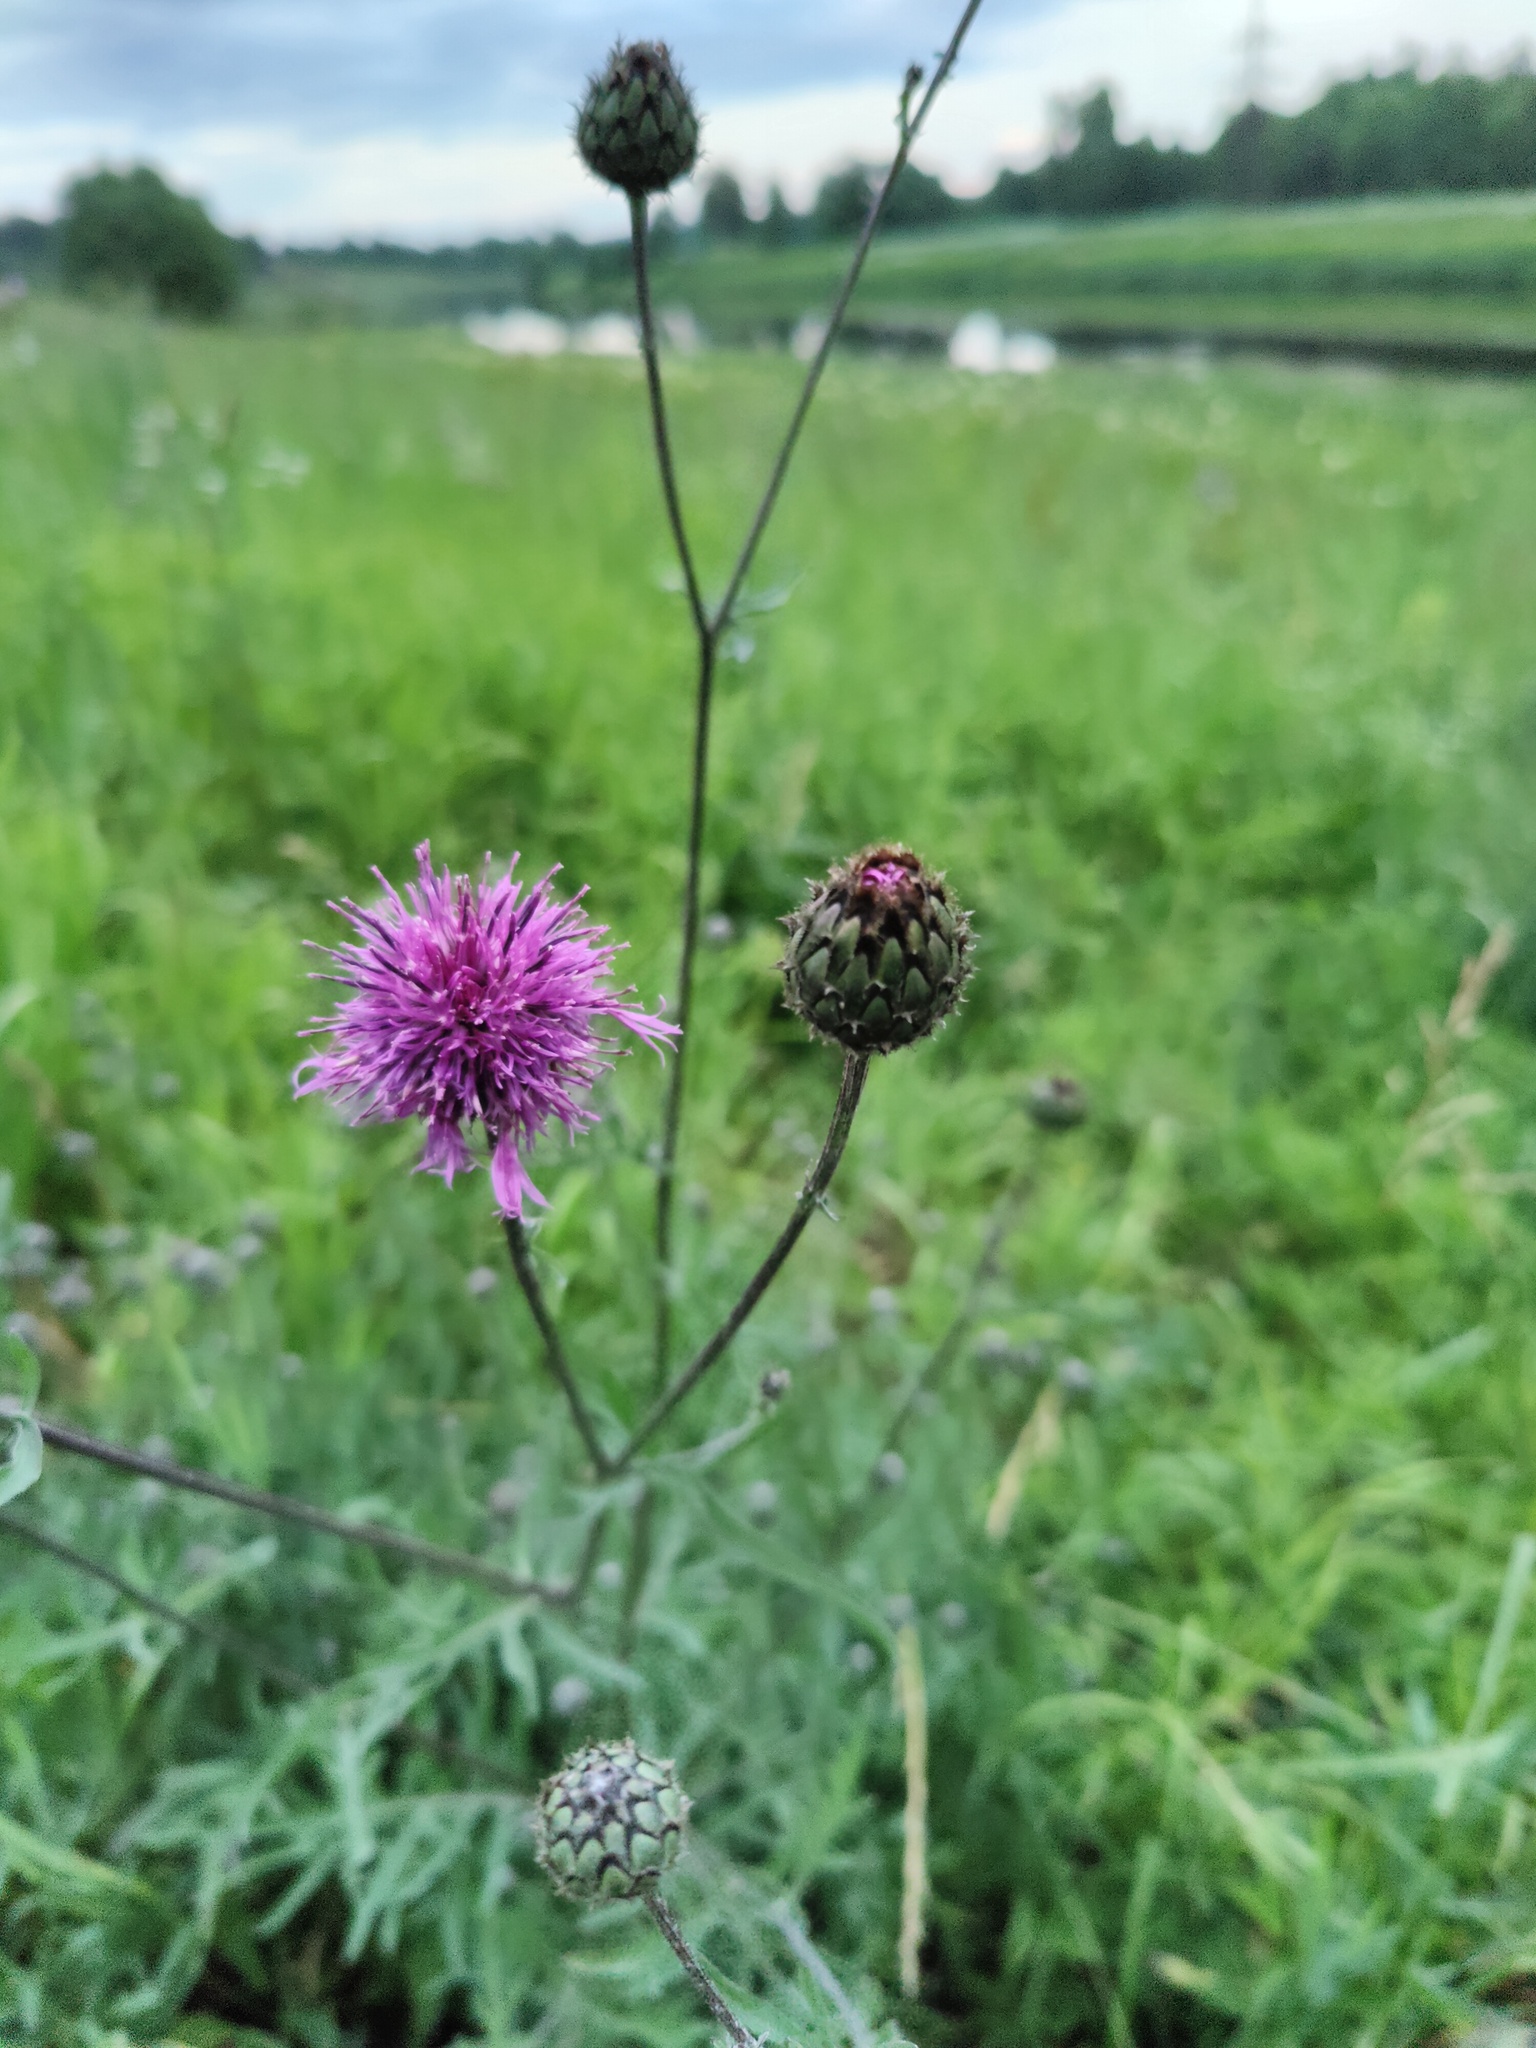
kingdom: Plantae
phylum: Tracheophyta
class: Magnoliopsida
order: Asterales
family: Asteraceae
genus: Centaurea
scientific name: Centaurea scabiosa
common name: Greater knapweed
